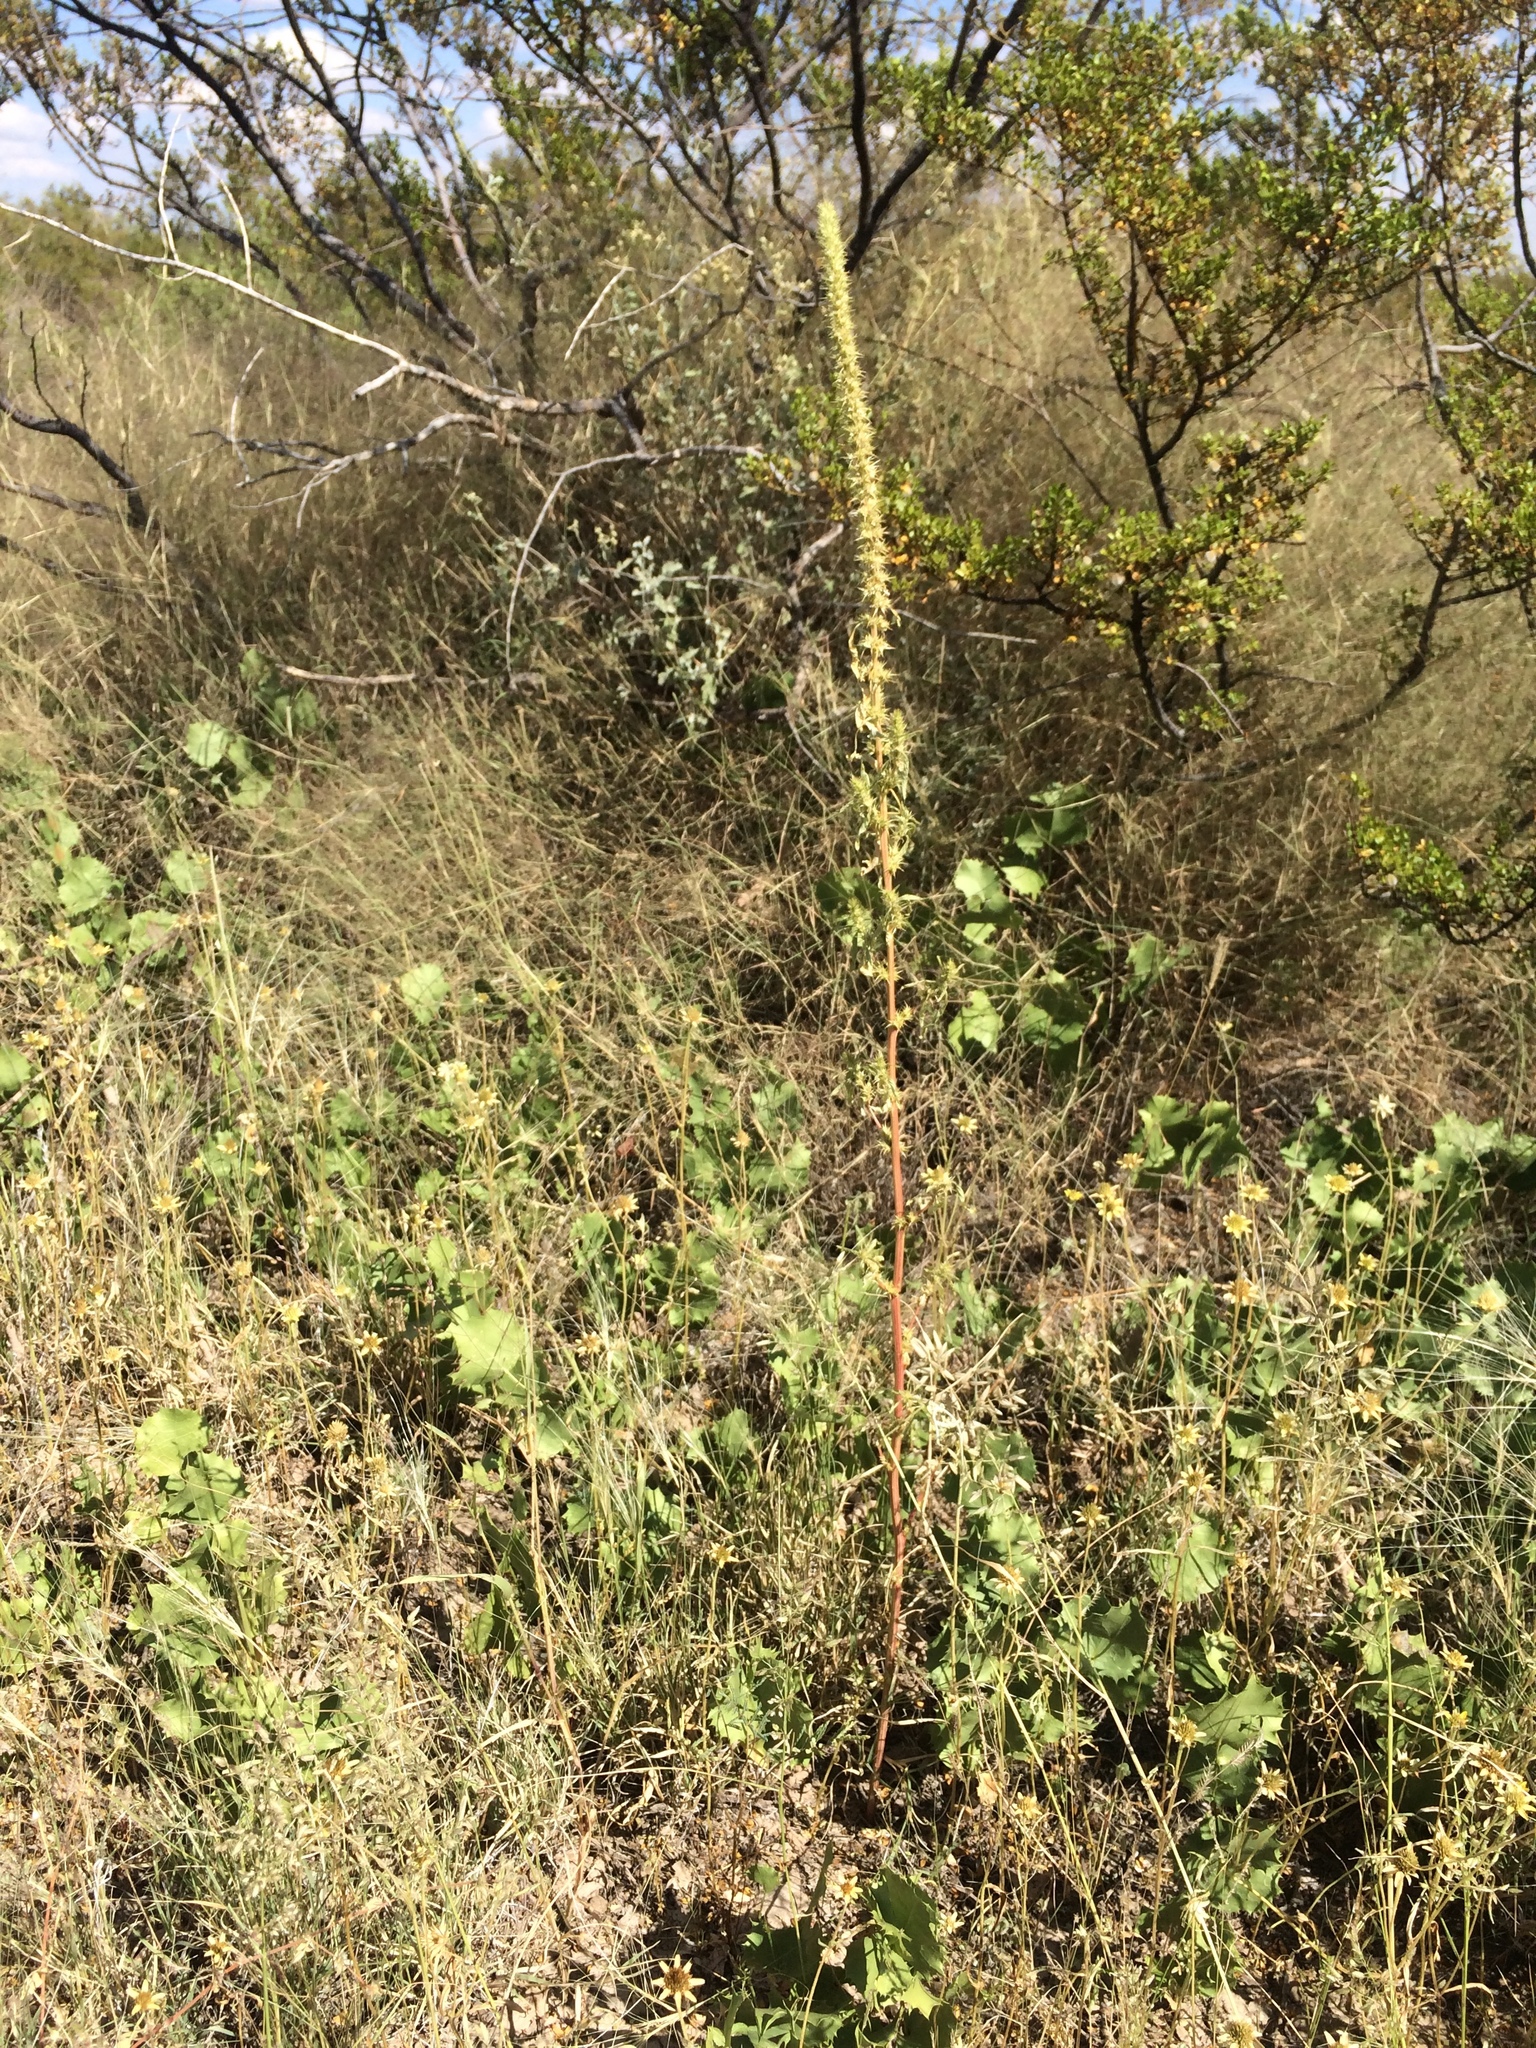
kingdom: Plantae
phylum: Tracheophyta
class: Magnoliopsida
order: Caryophyllales
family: Amaranthaceae
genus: Amaranthus
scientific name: Amaranthus palmeri
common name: Dioecious amaranth
